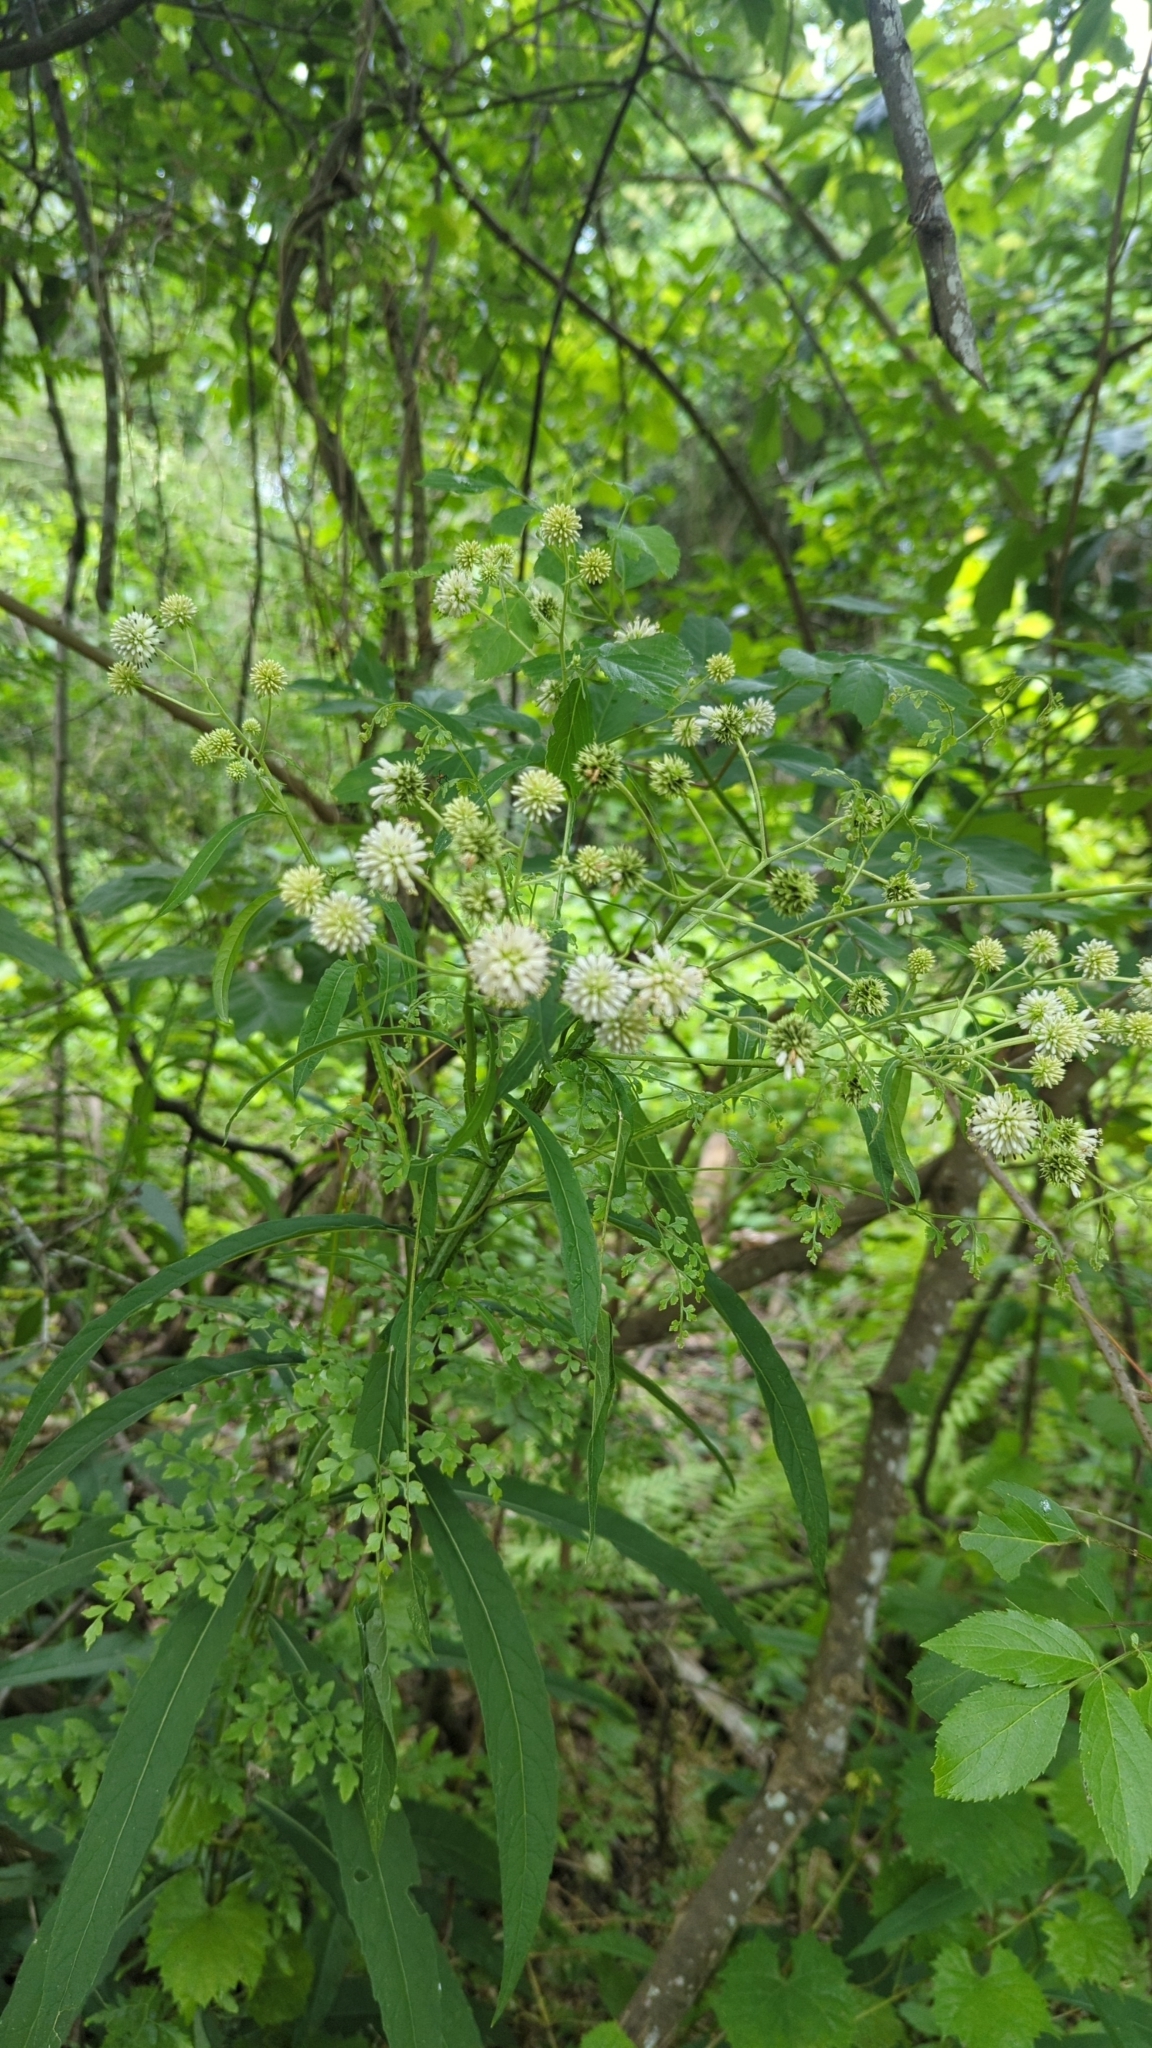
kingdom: Plantae
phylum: Tracheophyta
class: Magnoliopsida
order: Asterales
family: Asteraceae
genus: Verbesina
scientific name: Verbesina walteri
